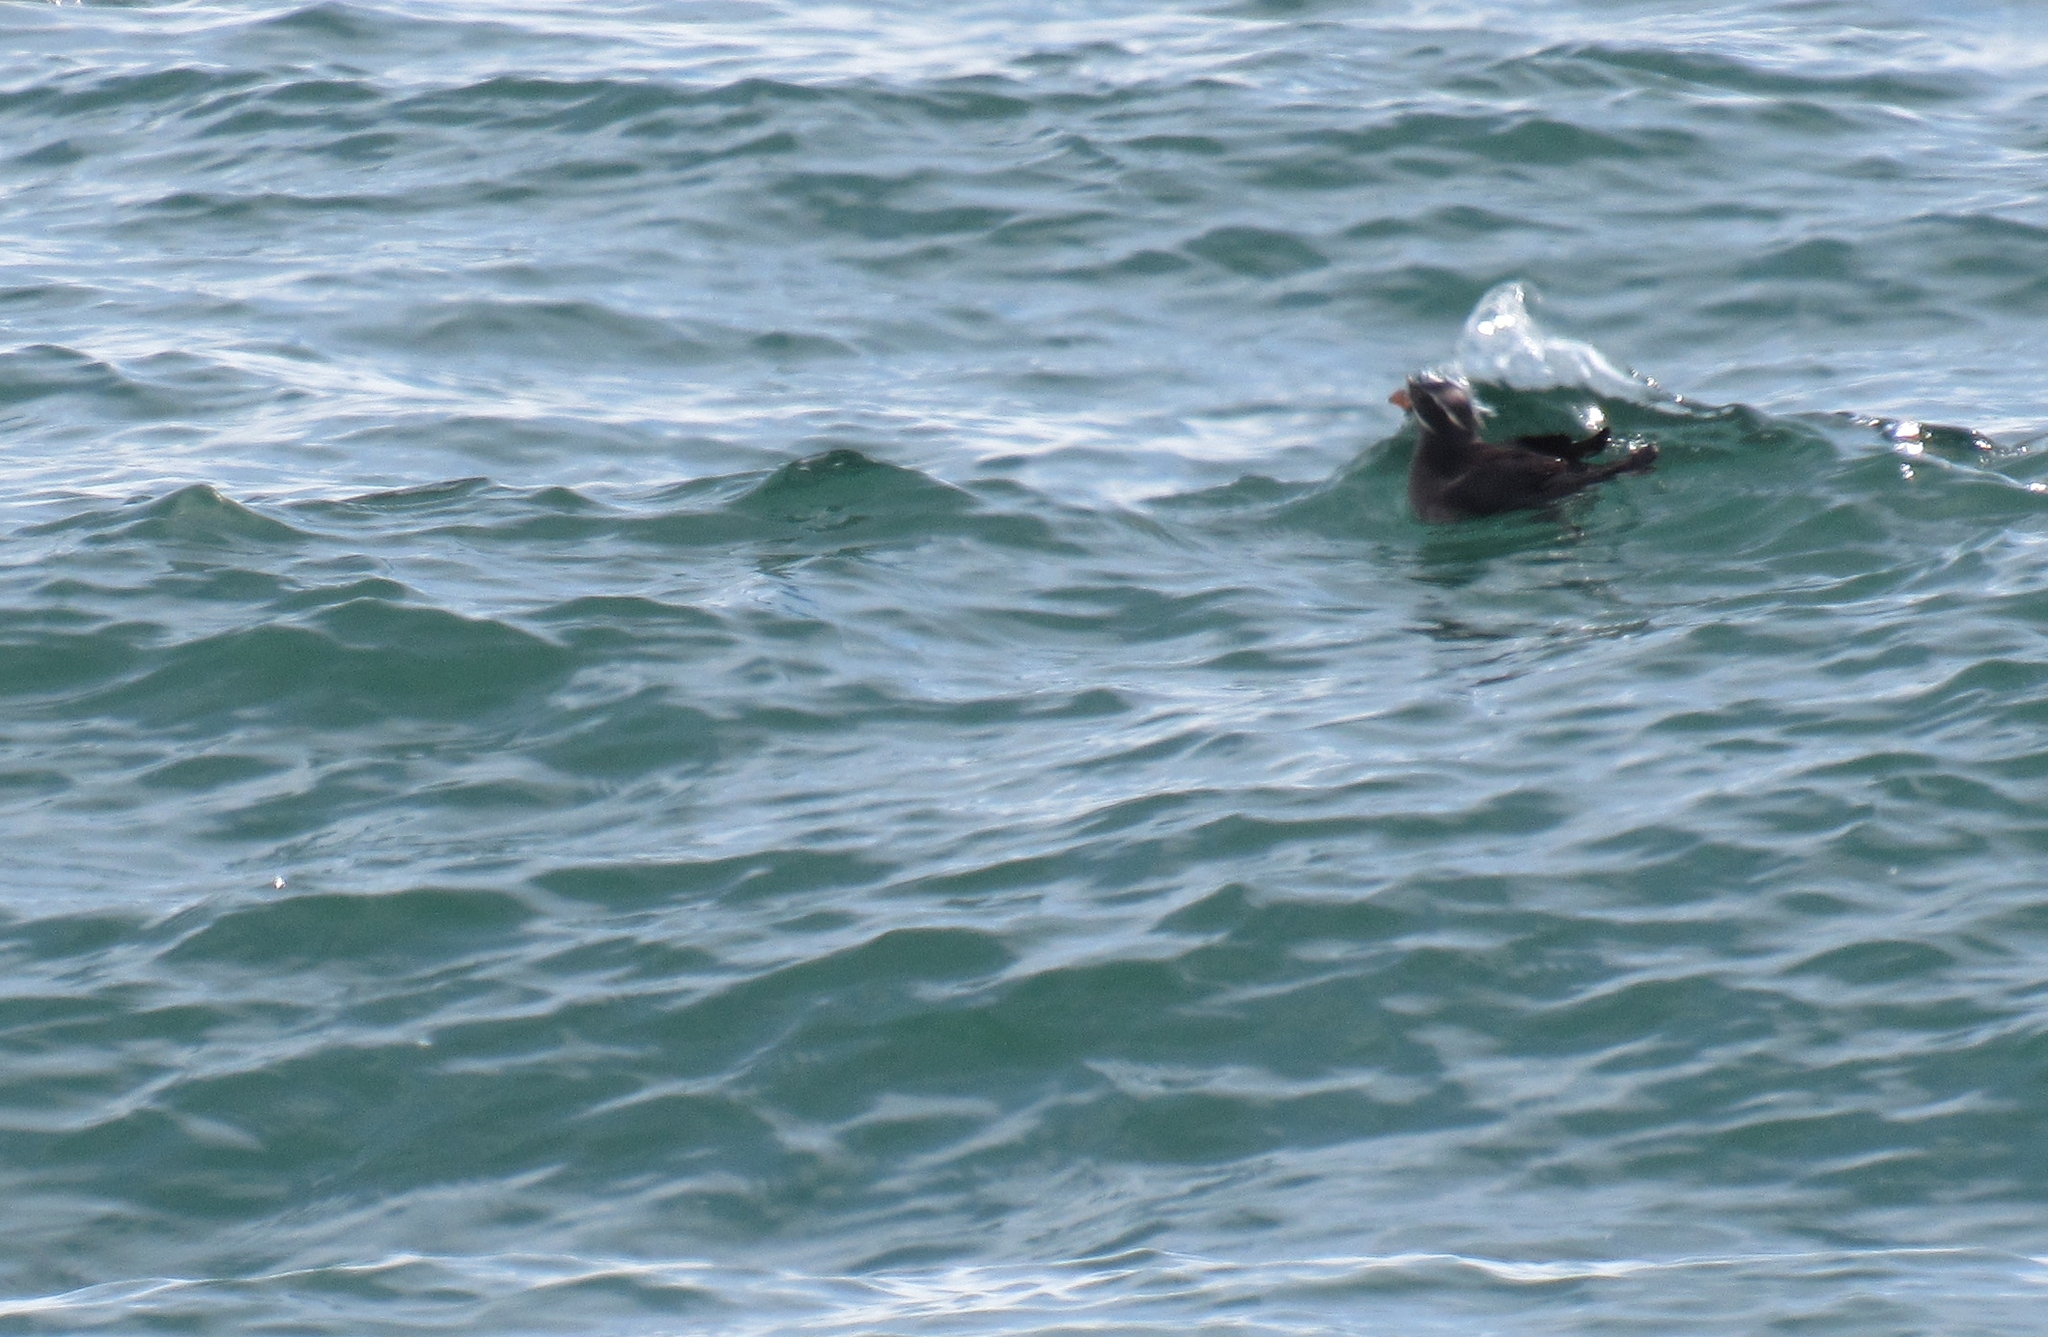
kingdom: Animalia
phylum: Chordata
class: Aves
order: Charadriiformes
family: Alcidae
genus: Cerorhinca
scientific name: Cerorhinca monocerata
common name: Rhinoceros auklet
